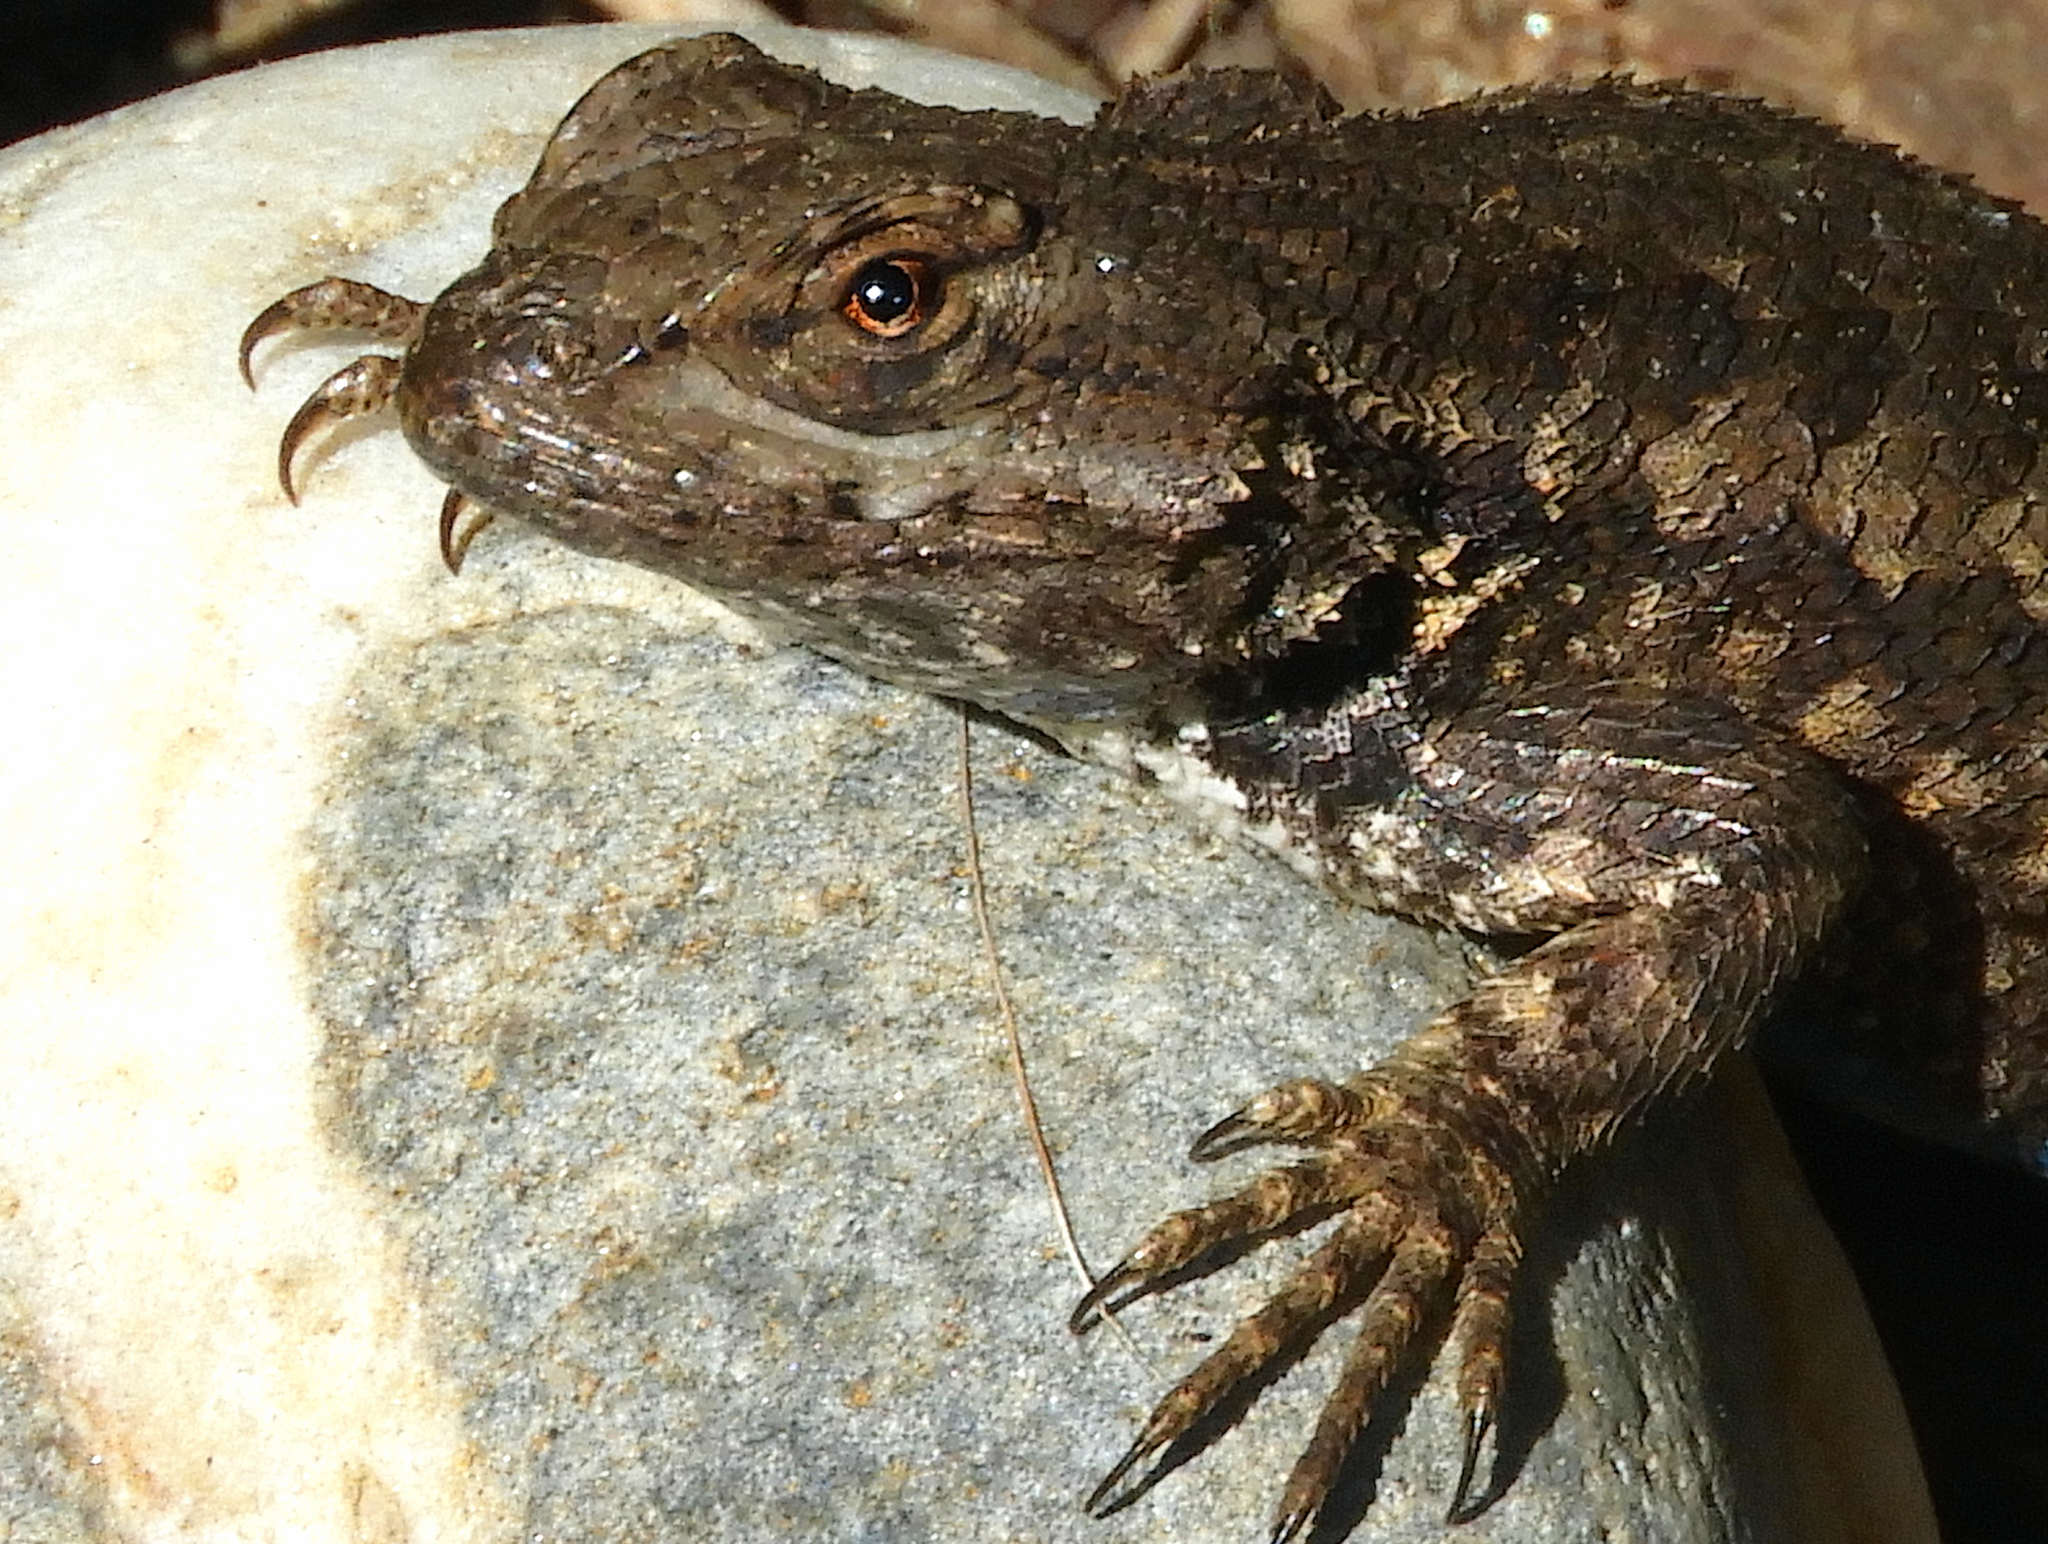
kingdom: Animalia
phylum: Chordata
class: Squamata
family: Phrynosomatidae
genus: Sceloporus
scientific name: Sceloporus occidentalis
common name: Western fence lizard
